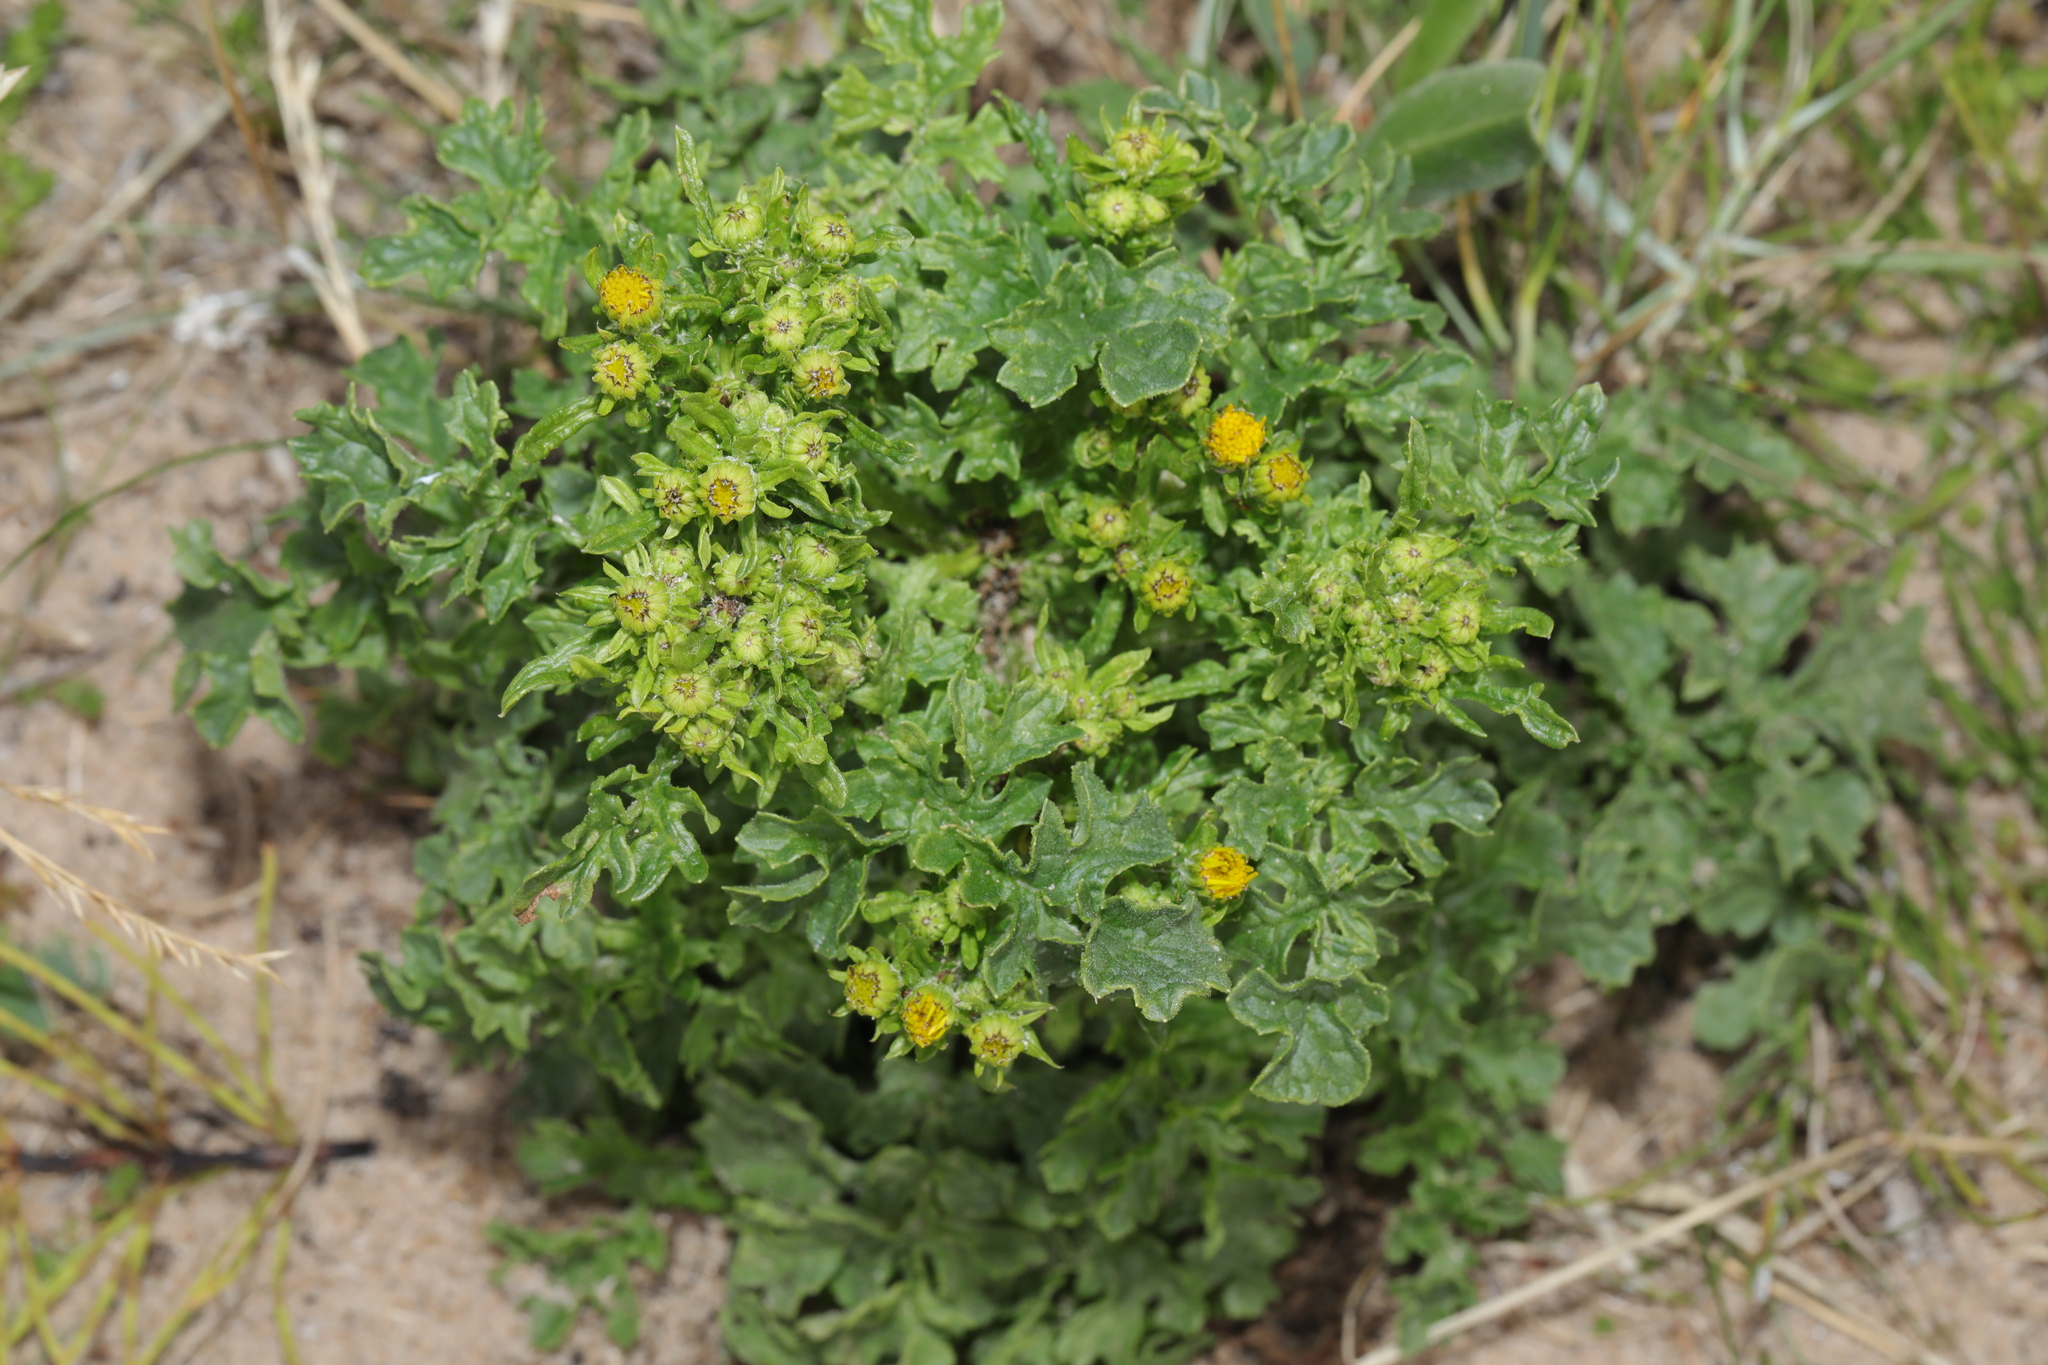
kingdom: Plantae
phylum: Tracheophyta
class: Magnoliopsida
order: Asterales
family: Asteraceae
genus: Jacobaea
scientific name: Jacobaea vulgaris
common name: Stinking willie
